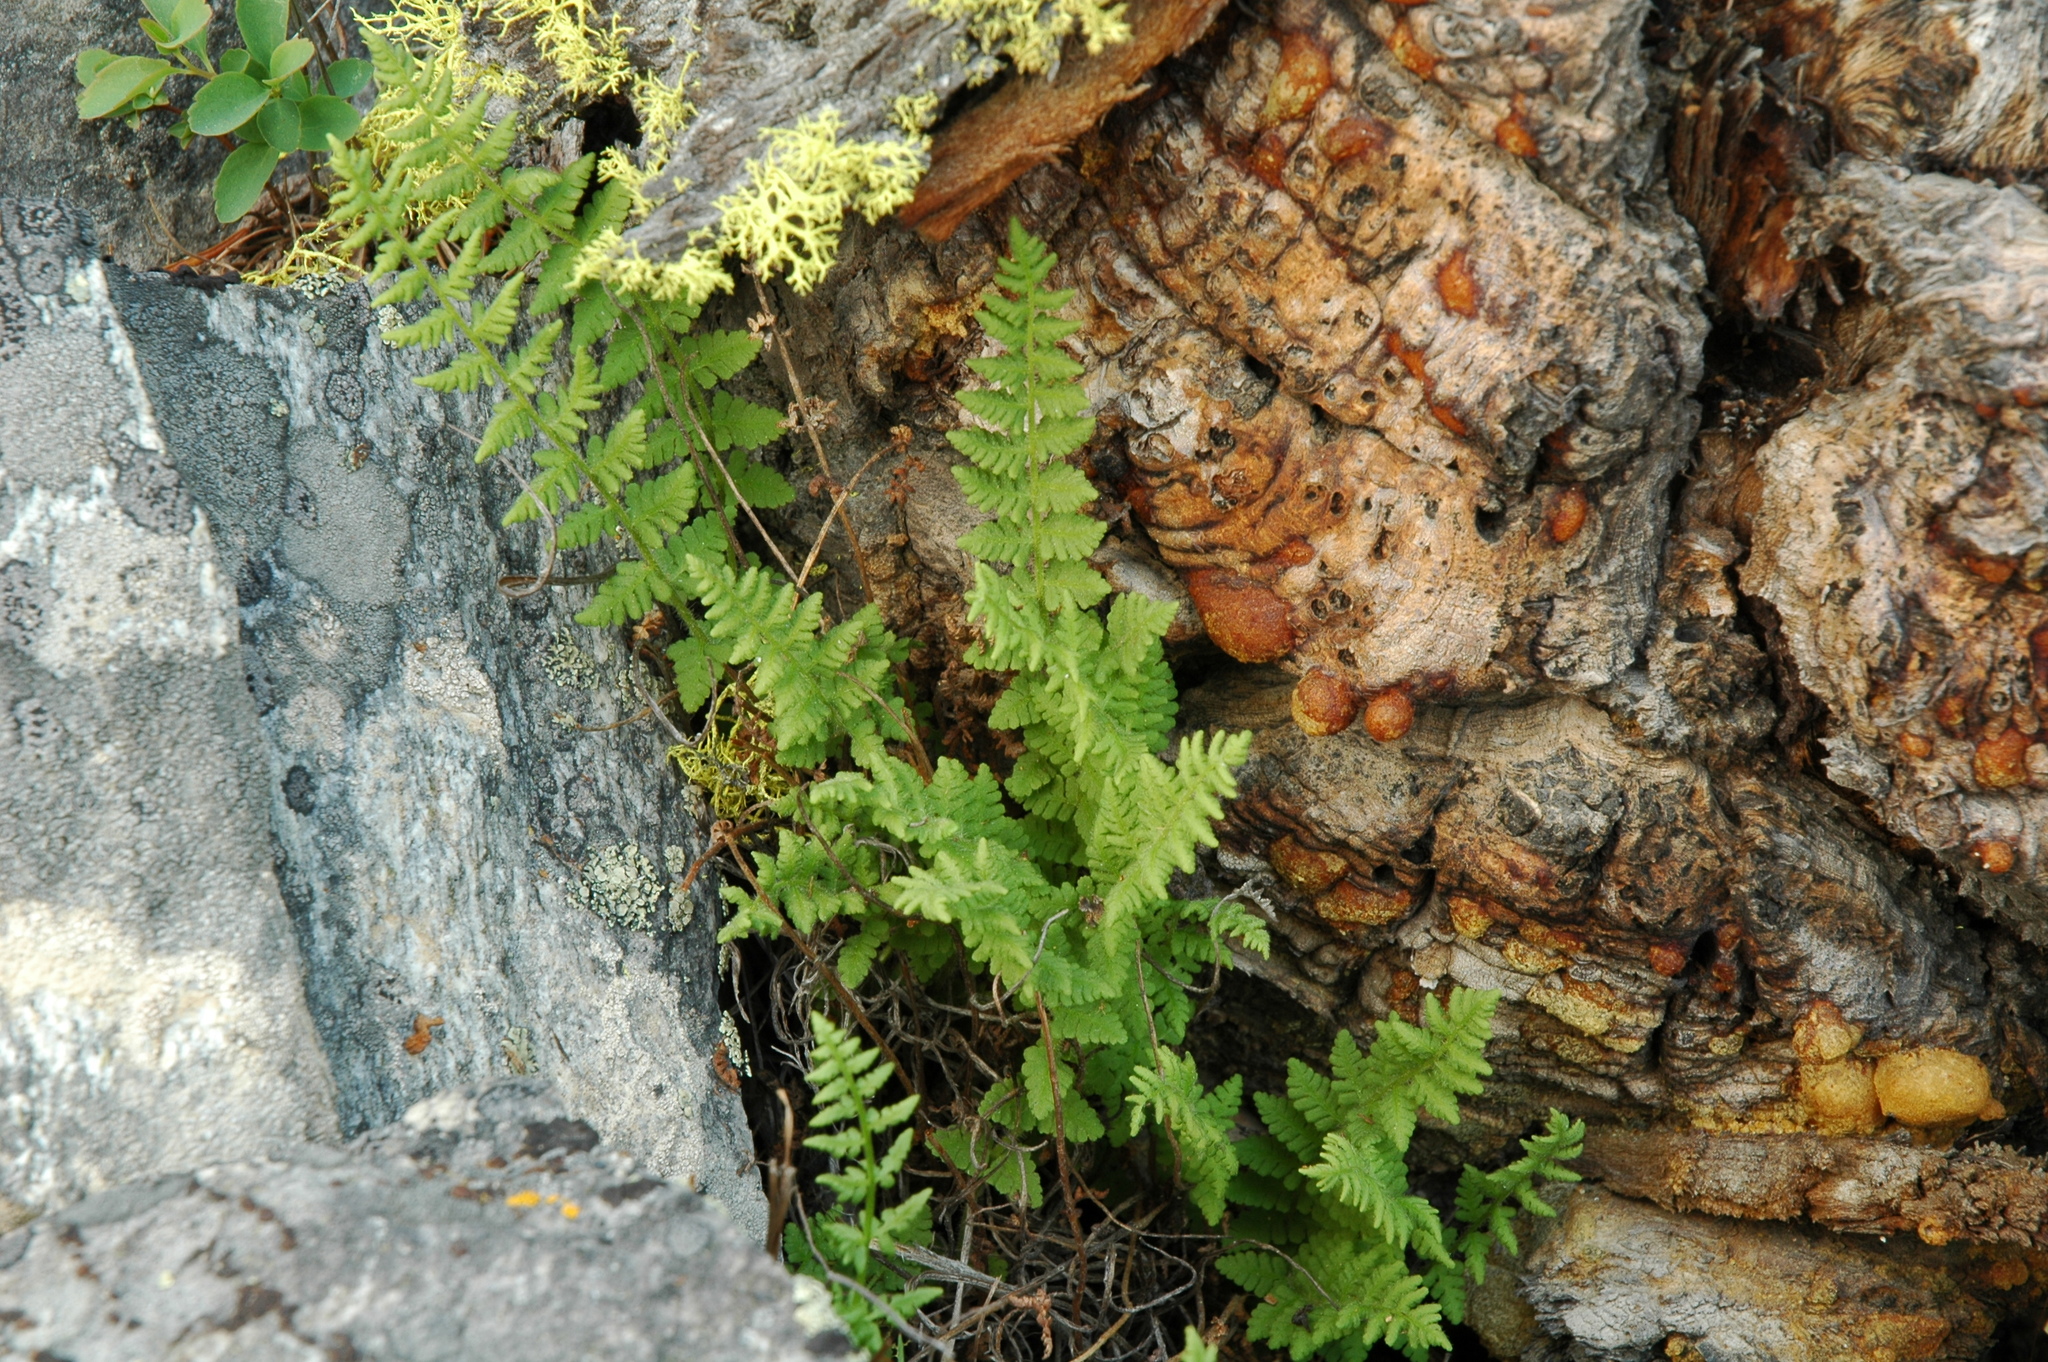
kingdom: Plantae
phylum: Tracheophyta
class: Polypodiopsida
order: Polypodiales
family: Woodsiaceae
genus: Physematium
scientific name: Physematium scopulinum
